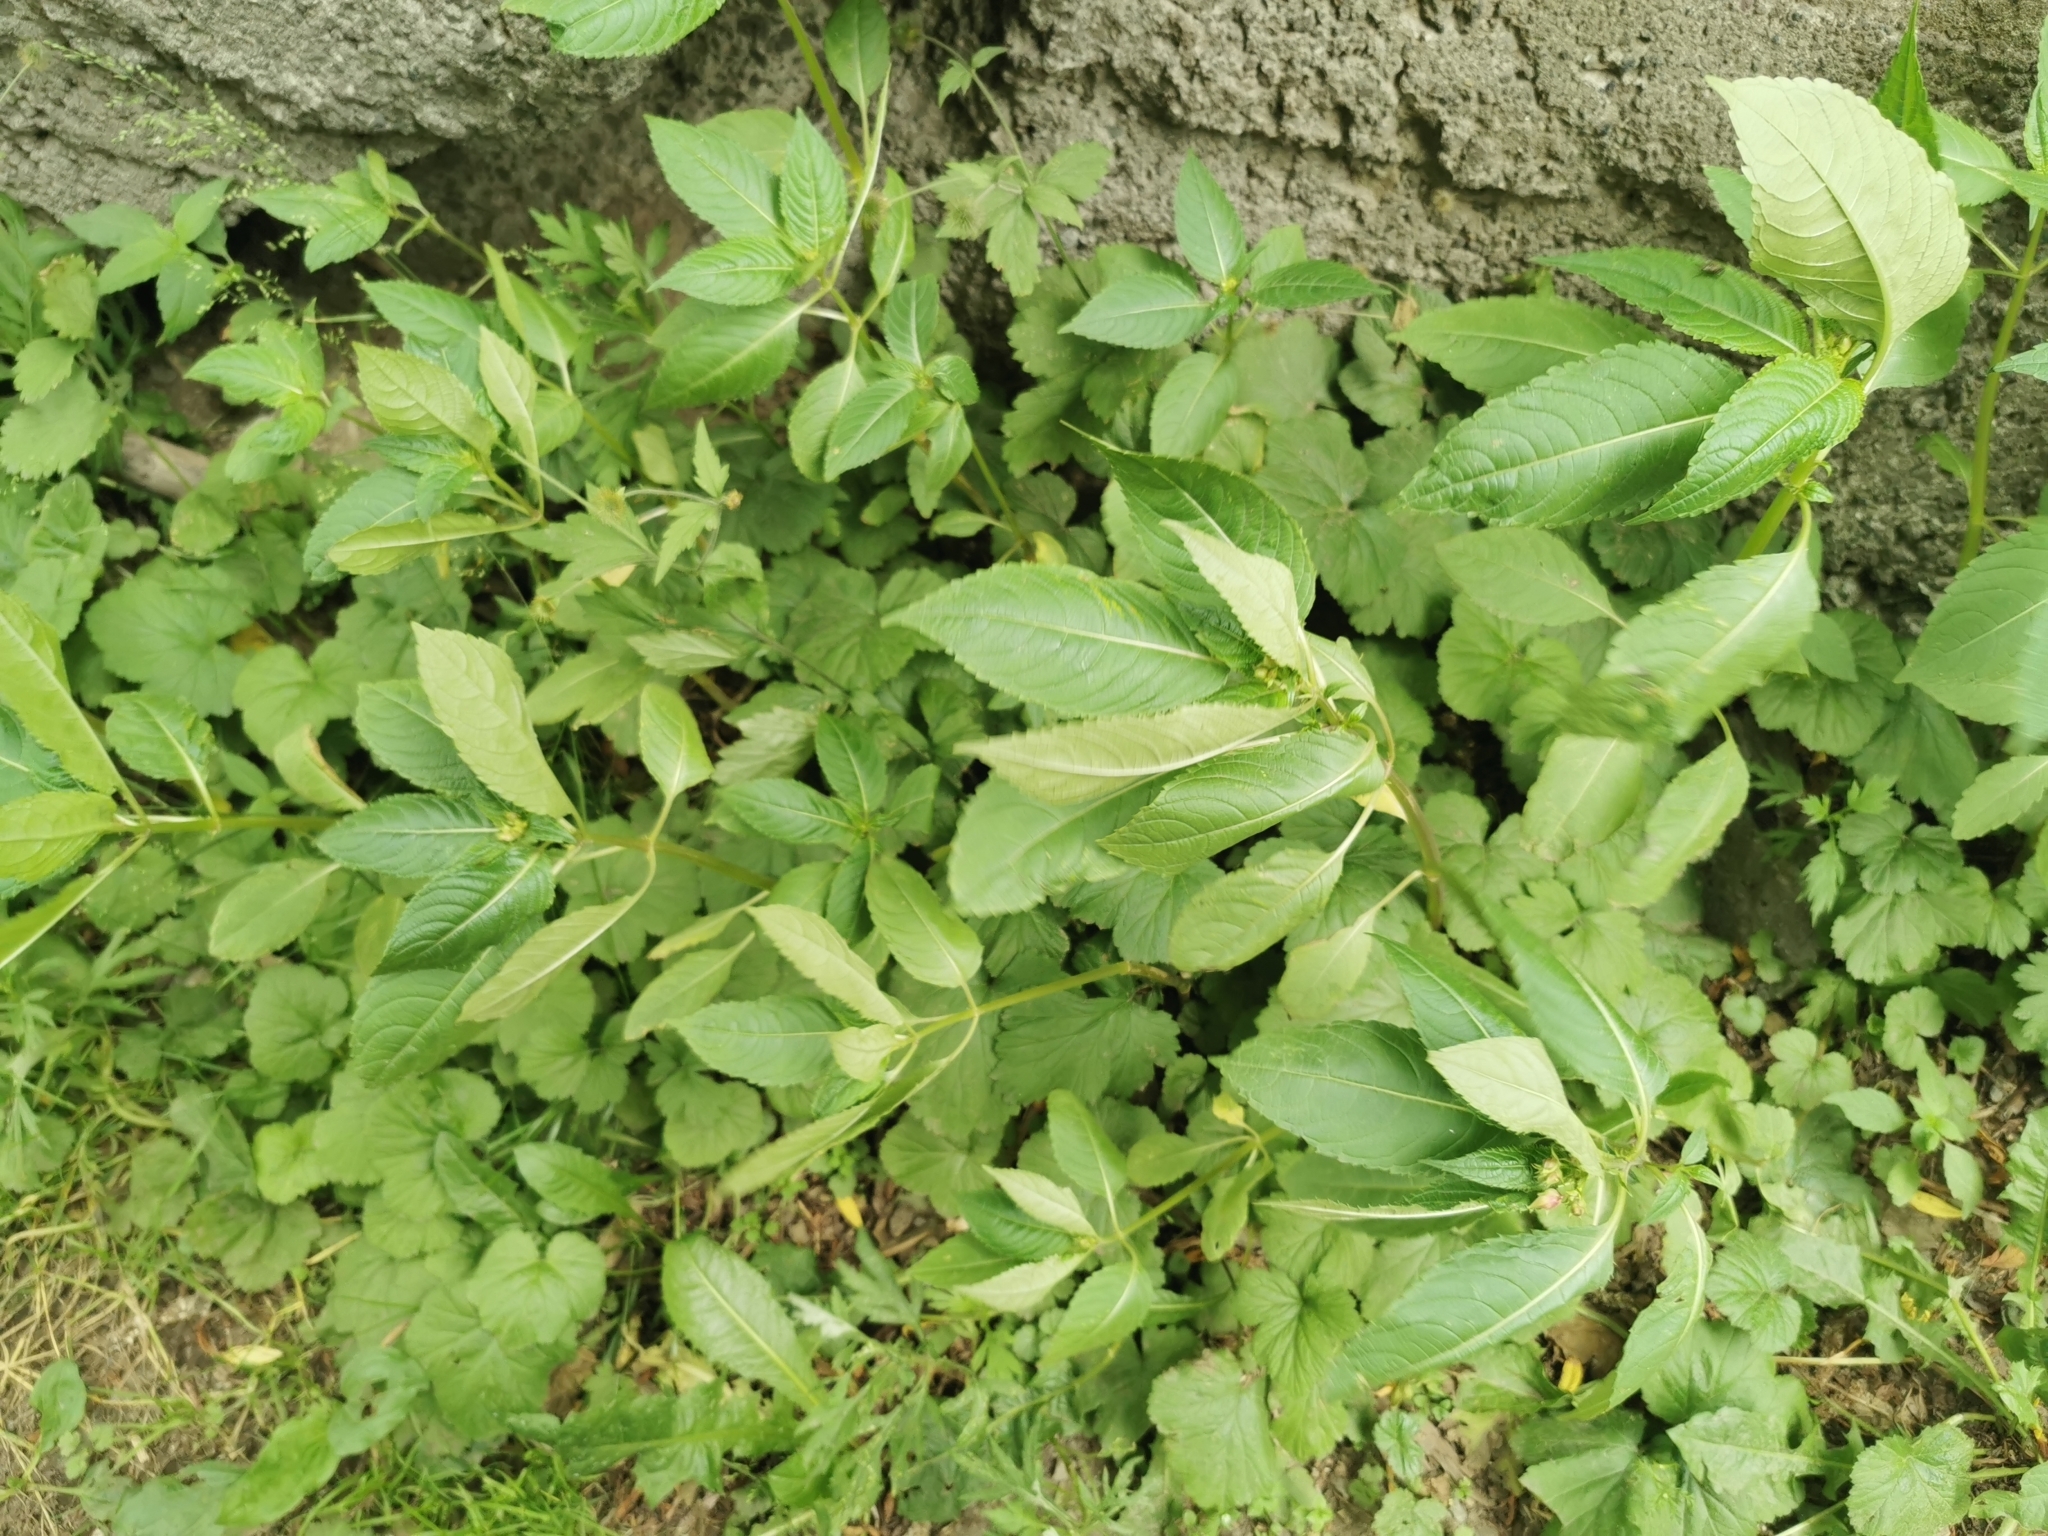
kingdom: Plantae
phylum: Tracheophyta
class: Magnoliopsida
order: Ericales
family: Balsaminaceae
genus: Impatiens
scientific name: Impatiens glandulifera
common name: Himalayan balsam
